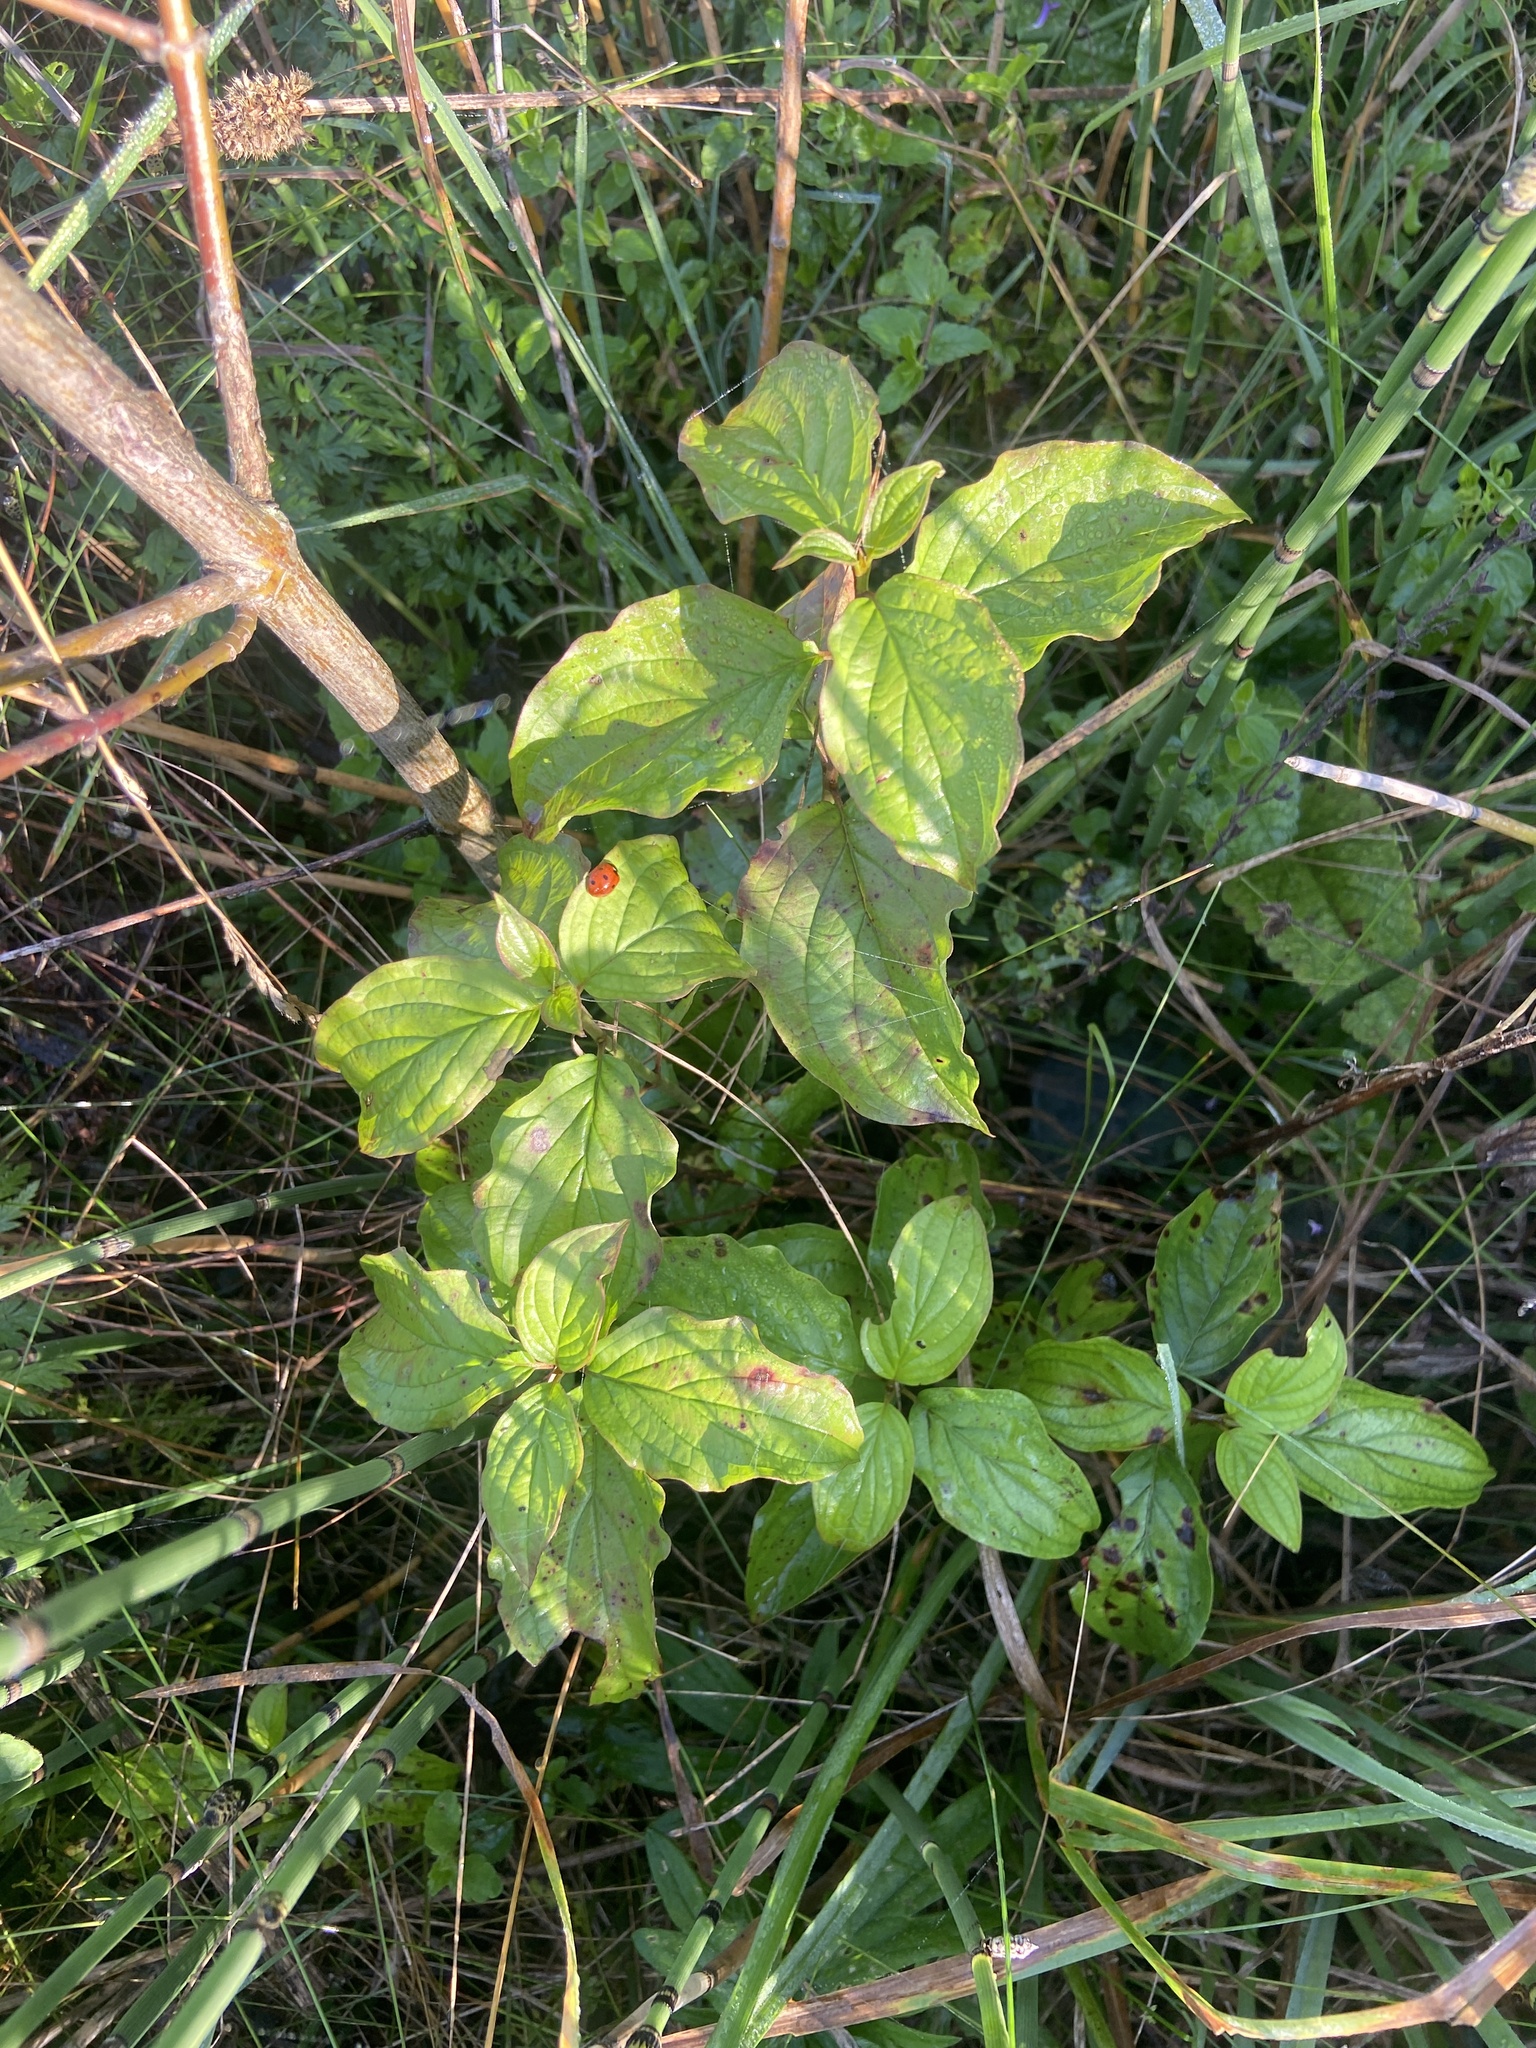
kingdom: Plantae
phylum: Tracheophyta
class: Magnoliopsida
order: Cornales
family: Cornaceae
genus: Cornus
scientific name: Cornus sanguinea
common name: Dogwood
